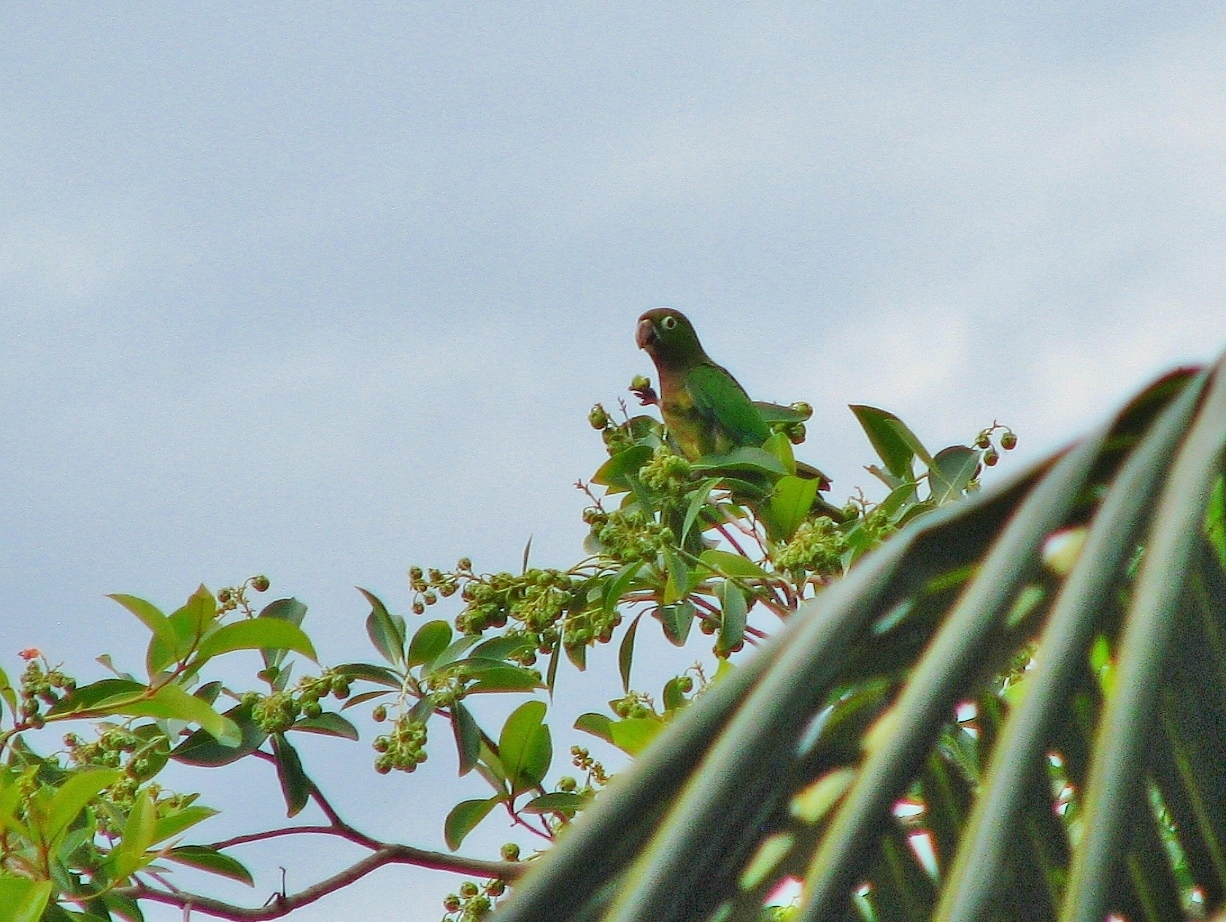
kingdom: Animalia
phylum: Chordata
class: Aves
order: Psittaciformes
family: Psittacidae
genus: Aratinga
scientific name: Aratinga nana
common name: Olive-throated parakeet
